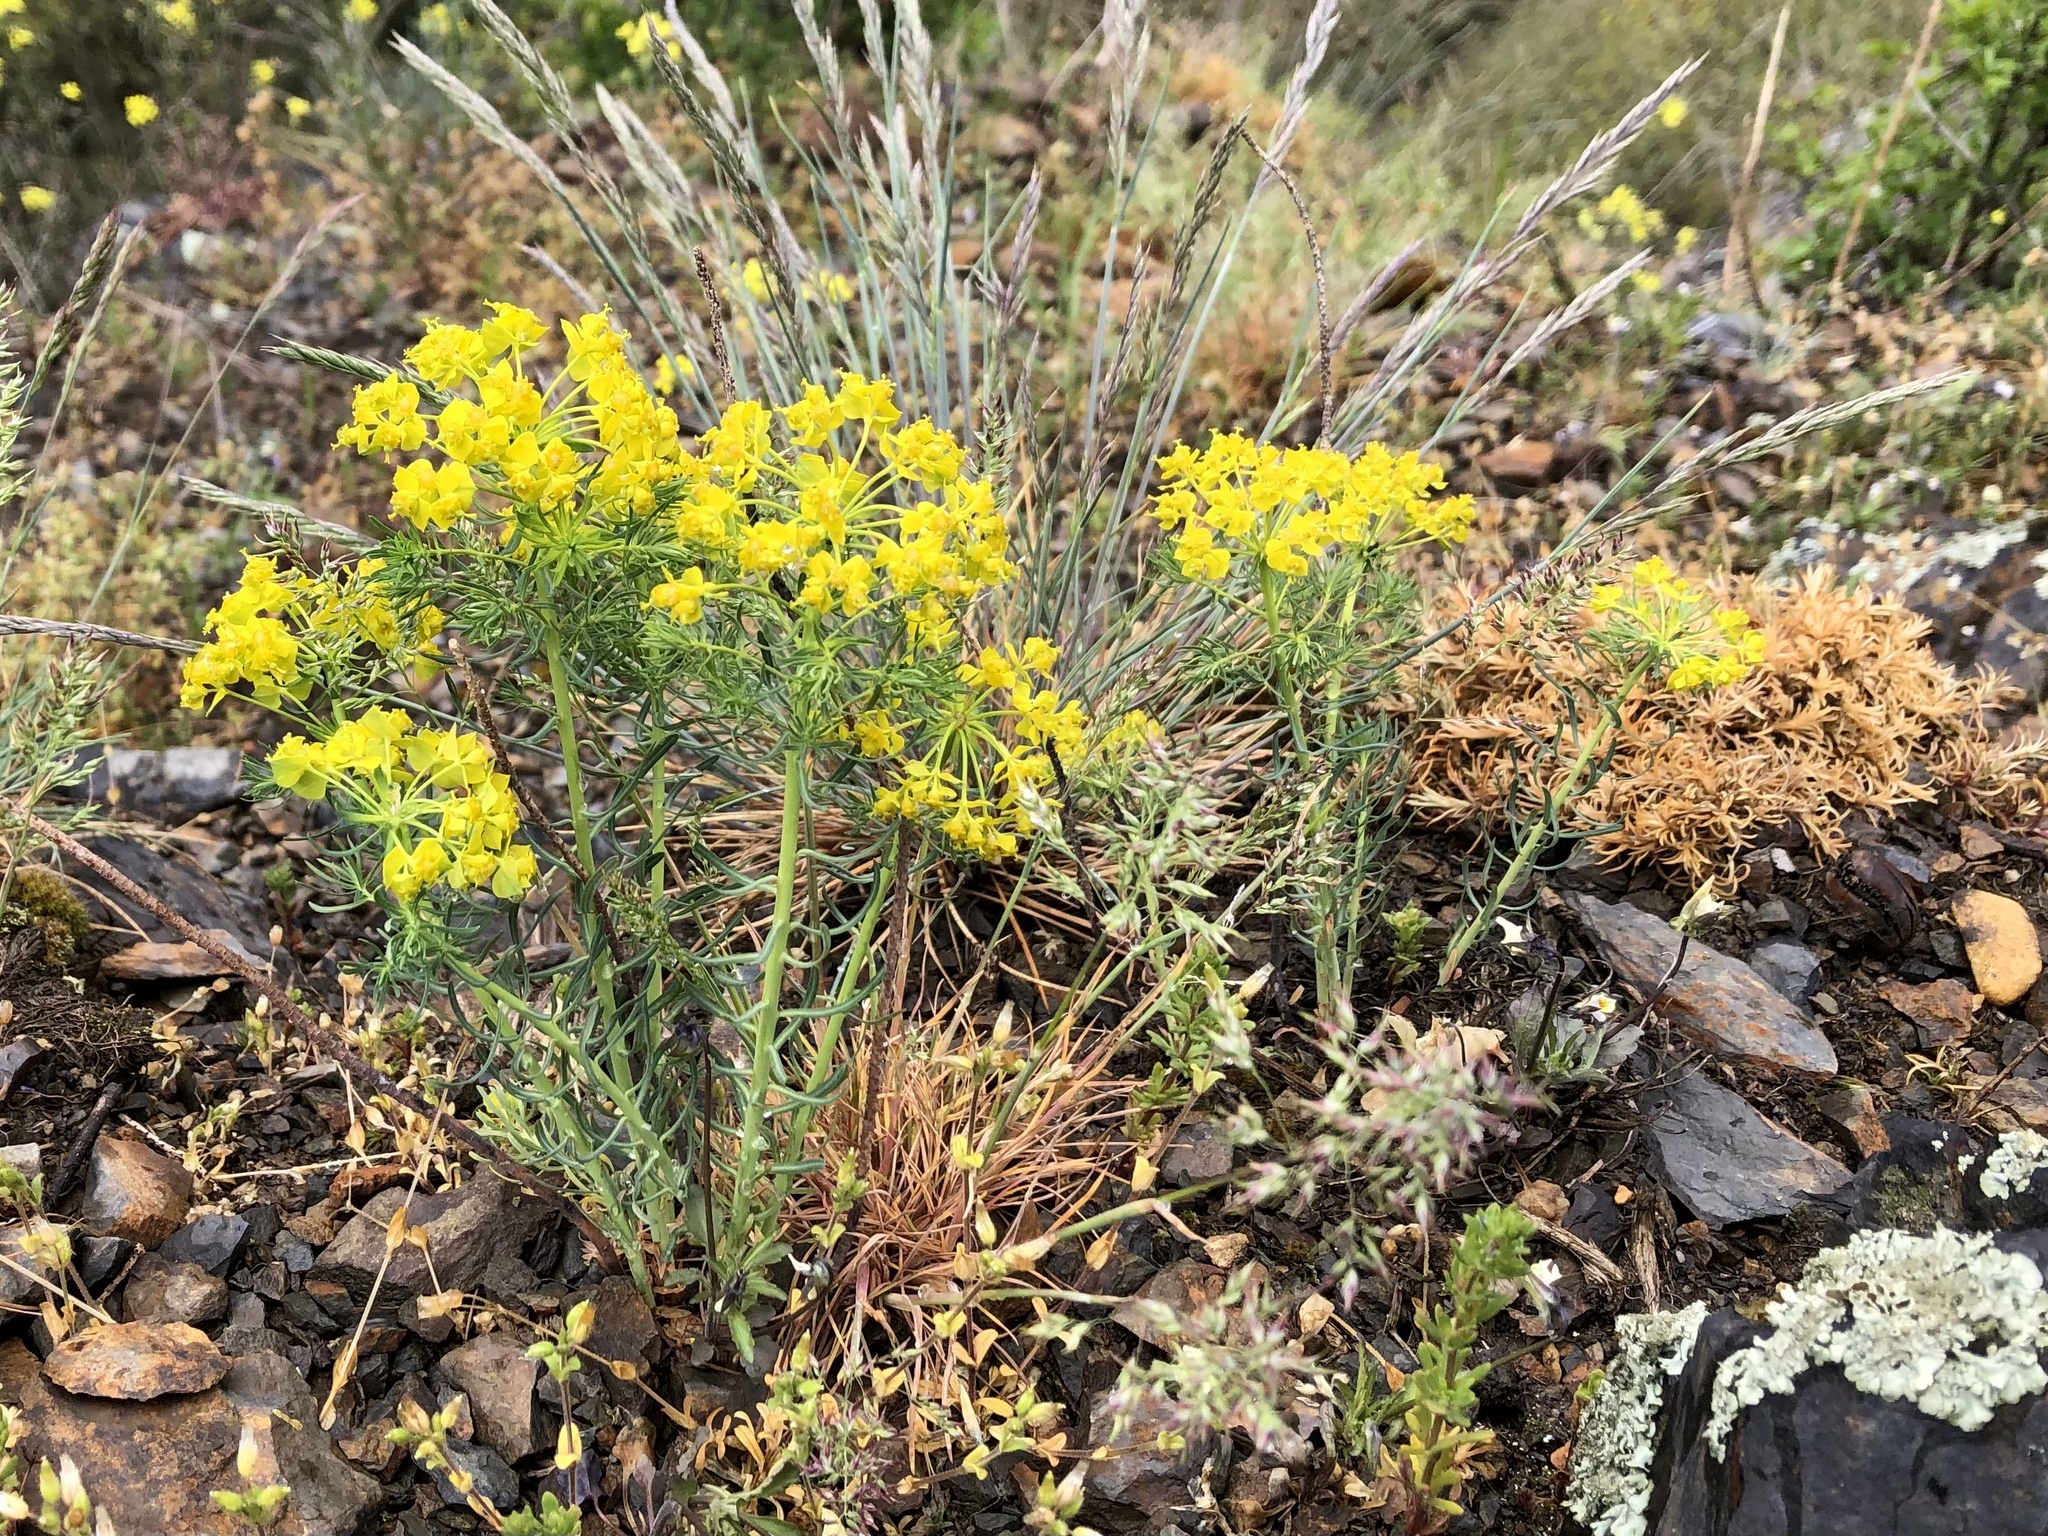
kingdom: Plantae
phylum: Tracheophyta
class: Magnoliopsida
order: Malpighiales
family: Euphorbiaceae
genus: Euphorbia
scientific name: Euphorbia cyparissias
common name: Cypress spurge
